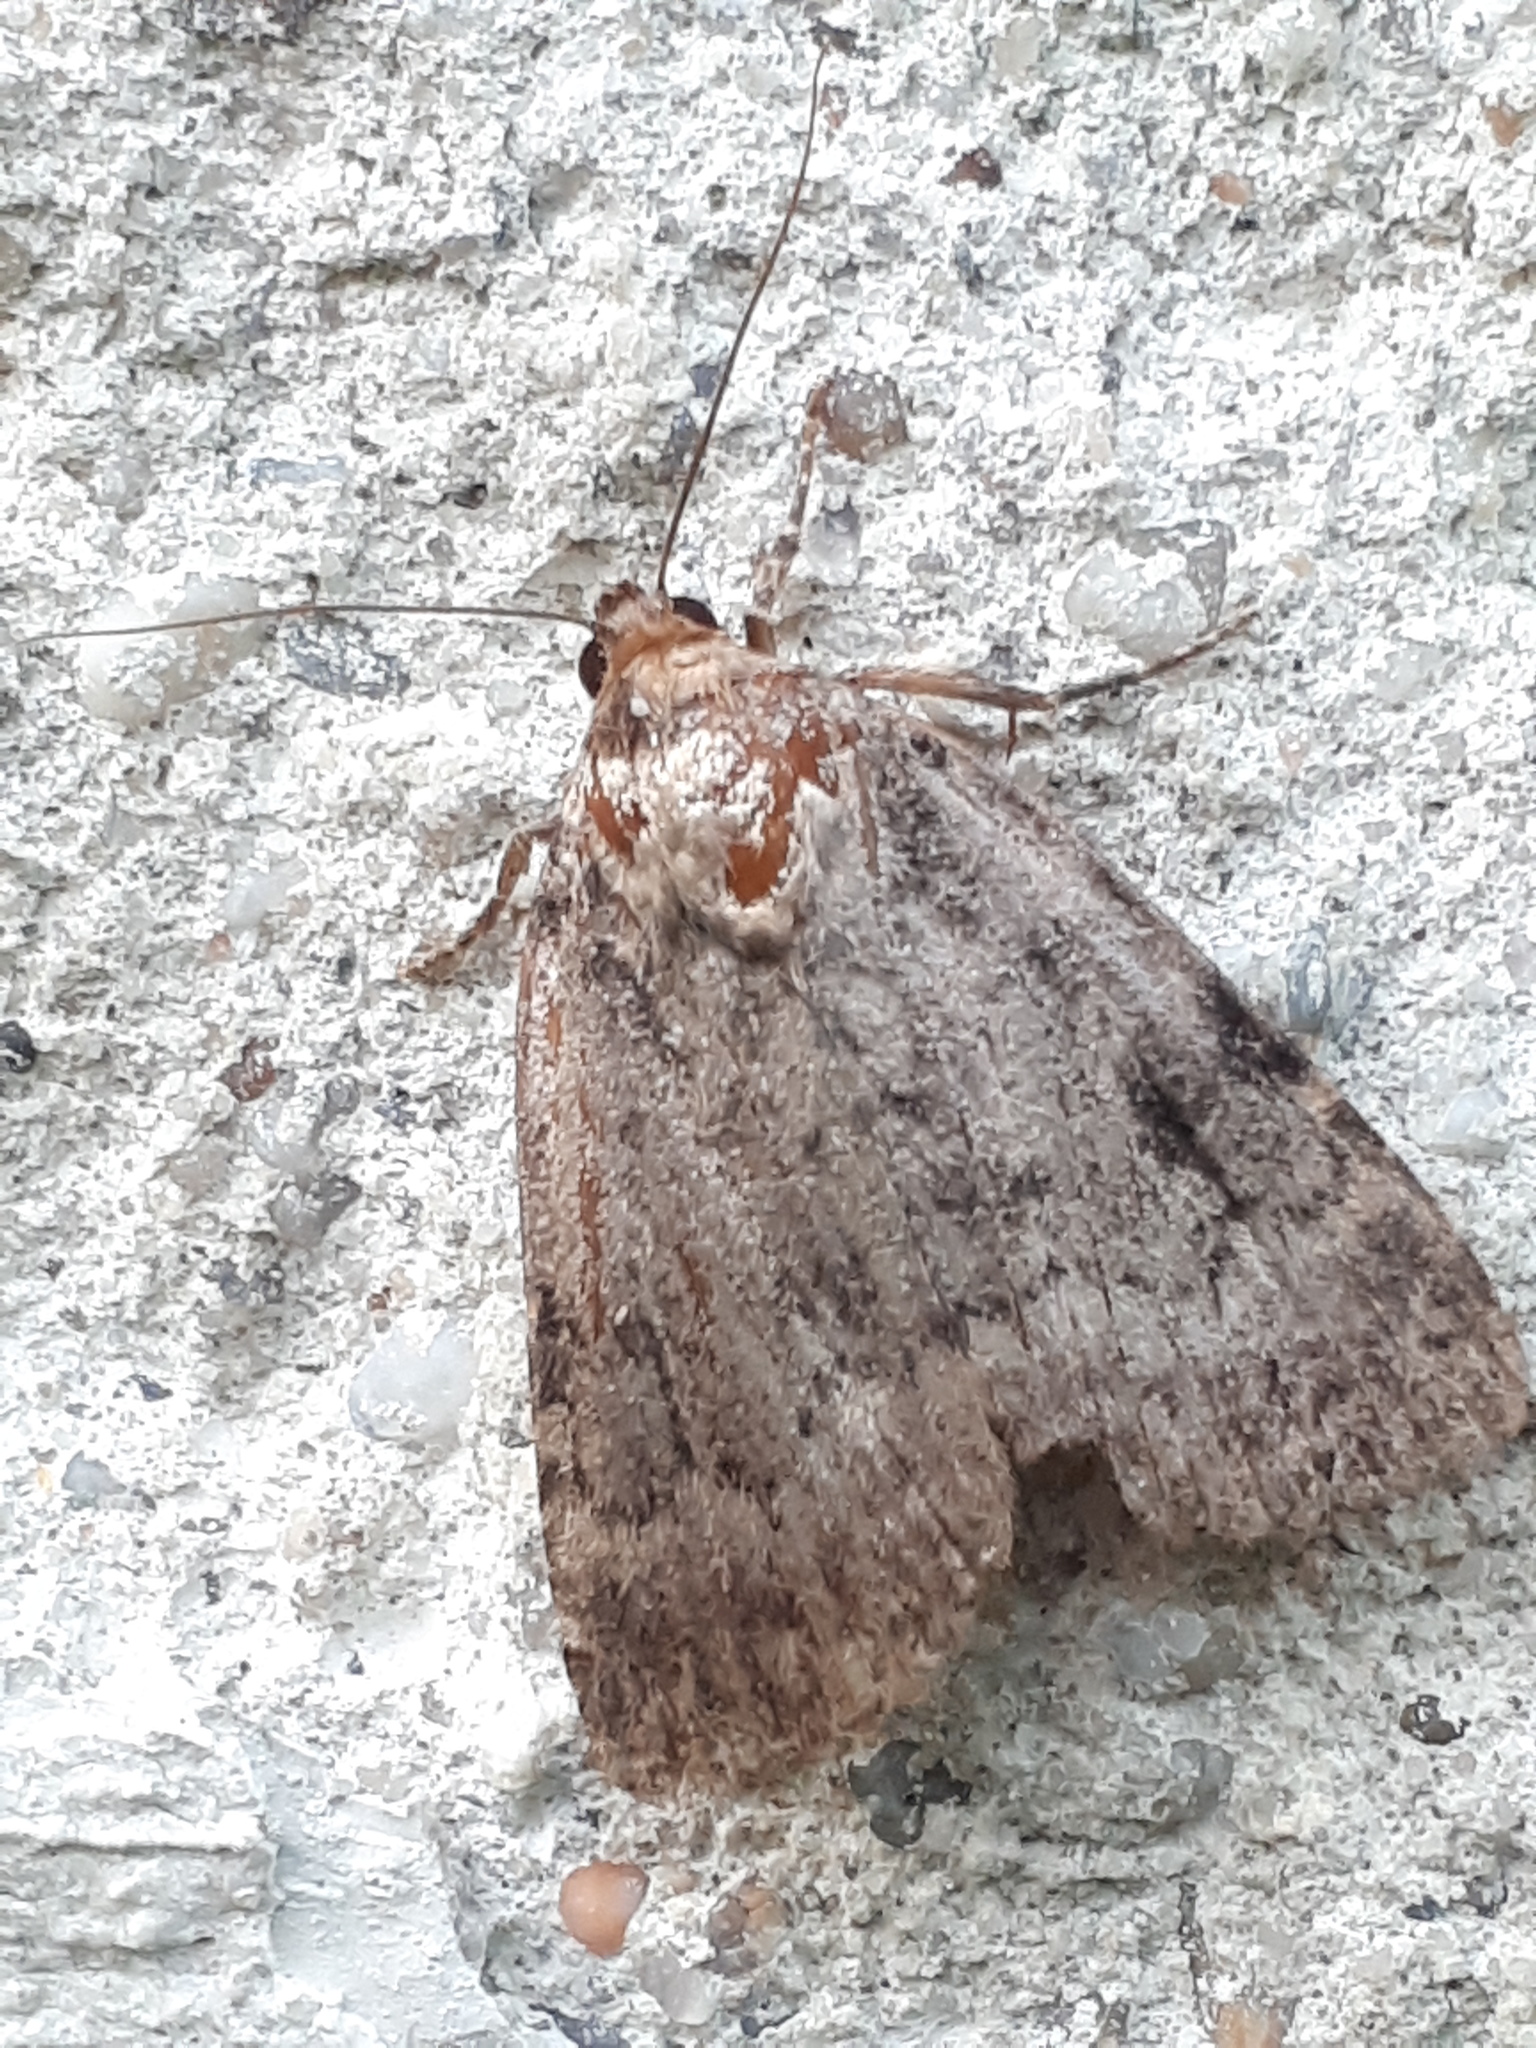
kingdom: Animalia
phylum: Arthropoda
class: Insecta
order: Lepidoptera
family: Noctuidae
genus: Amphipyra
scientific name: Amphipyra berbera
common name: Svensson's copper underwing
